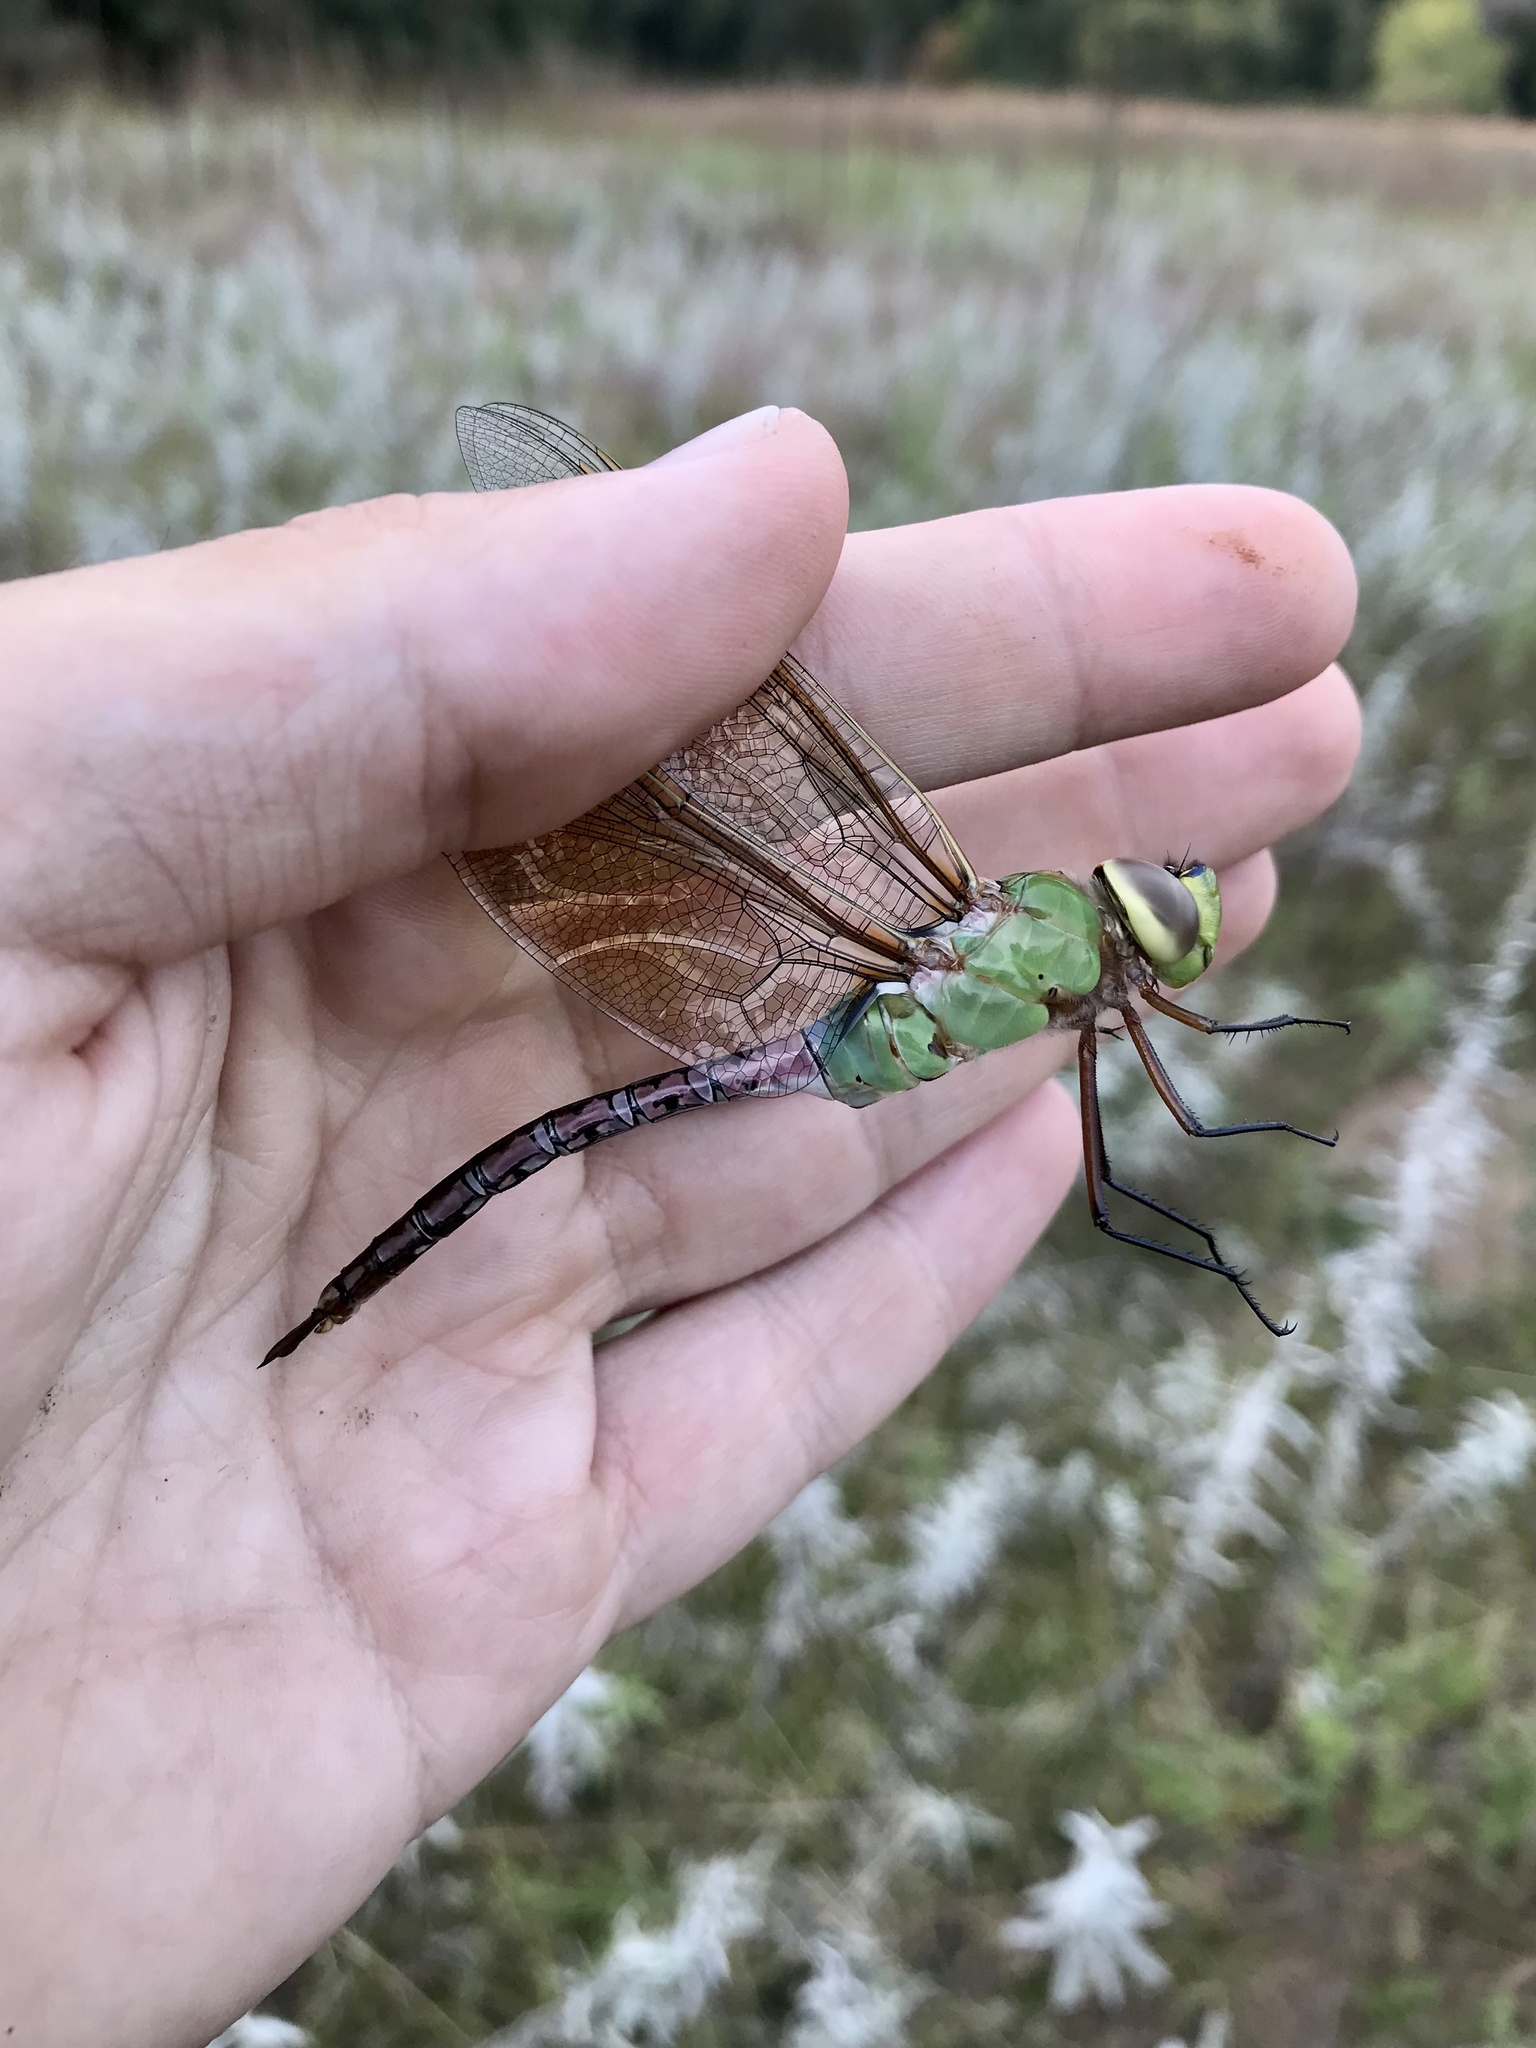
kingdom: Animalia
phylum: Arthropoda
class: Insecta
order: Odonata
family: Aeshnidae
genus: Anax
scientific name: Anax junius
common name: Common green darner
